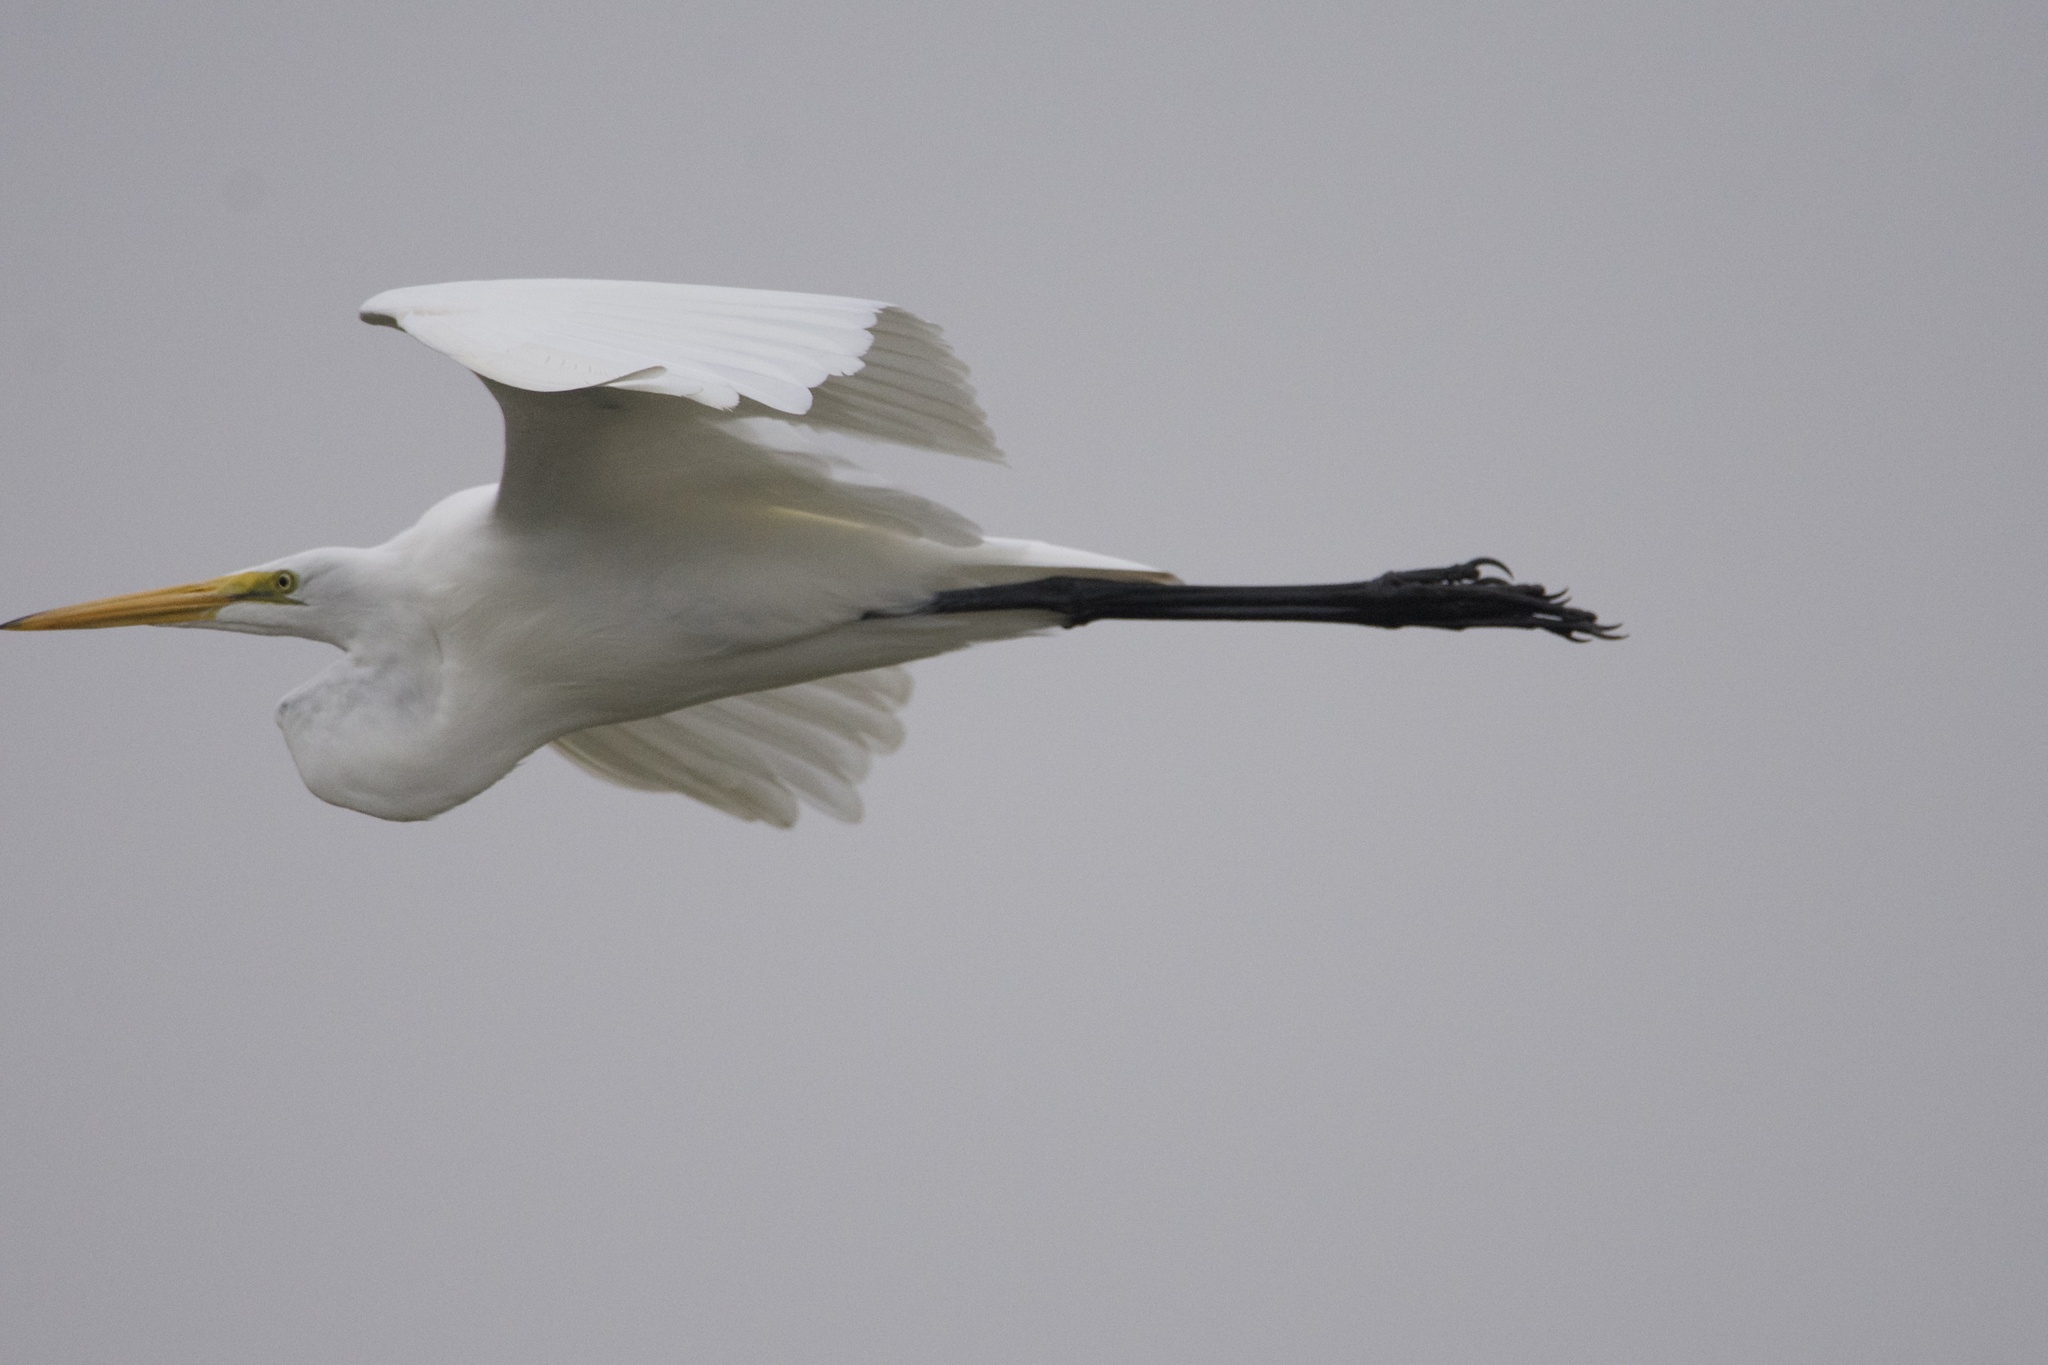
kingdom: Animalia
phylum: Chordata
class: Aves
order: Pelecaniformes
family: Ardeidae
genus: Ardea
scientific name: Ardea alba
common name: Great egret
